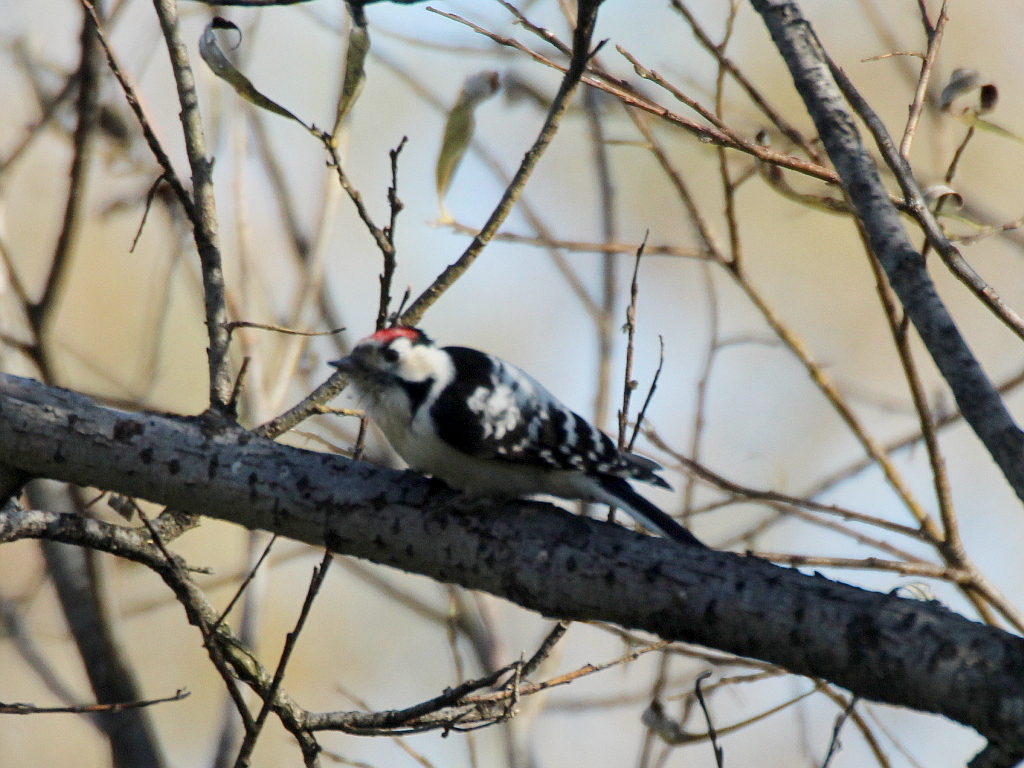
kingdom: Animalia
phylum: Chordata
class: Aves
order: Piciformes
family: Picidae
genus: Dryobates
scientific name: Dryobates minor
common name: Lesser spotted woodpecker
